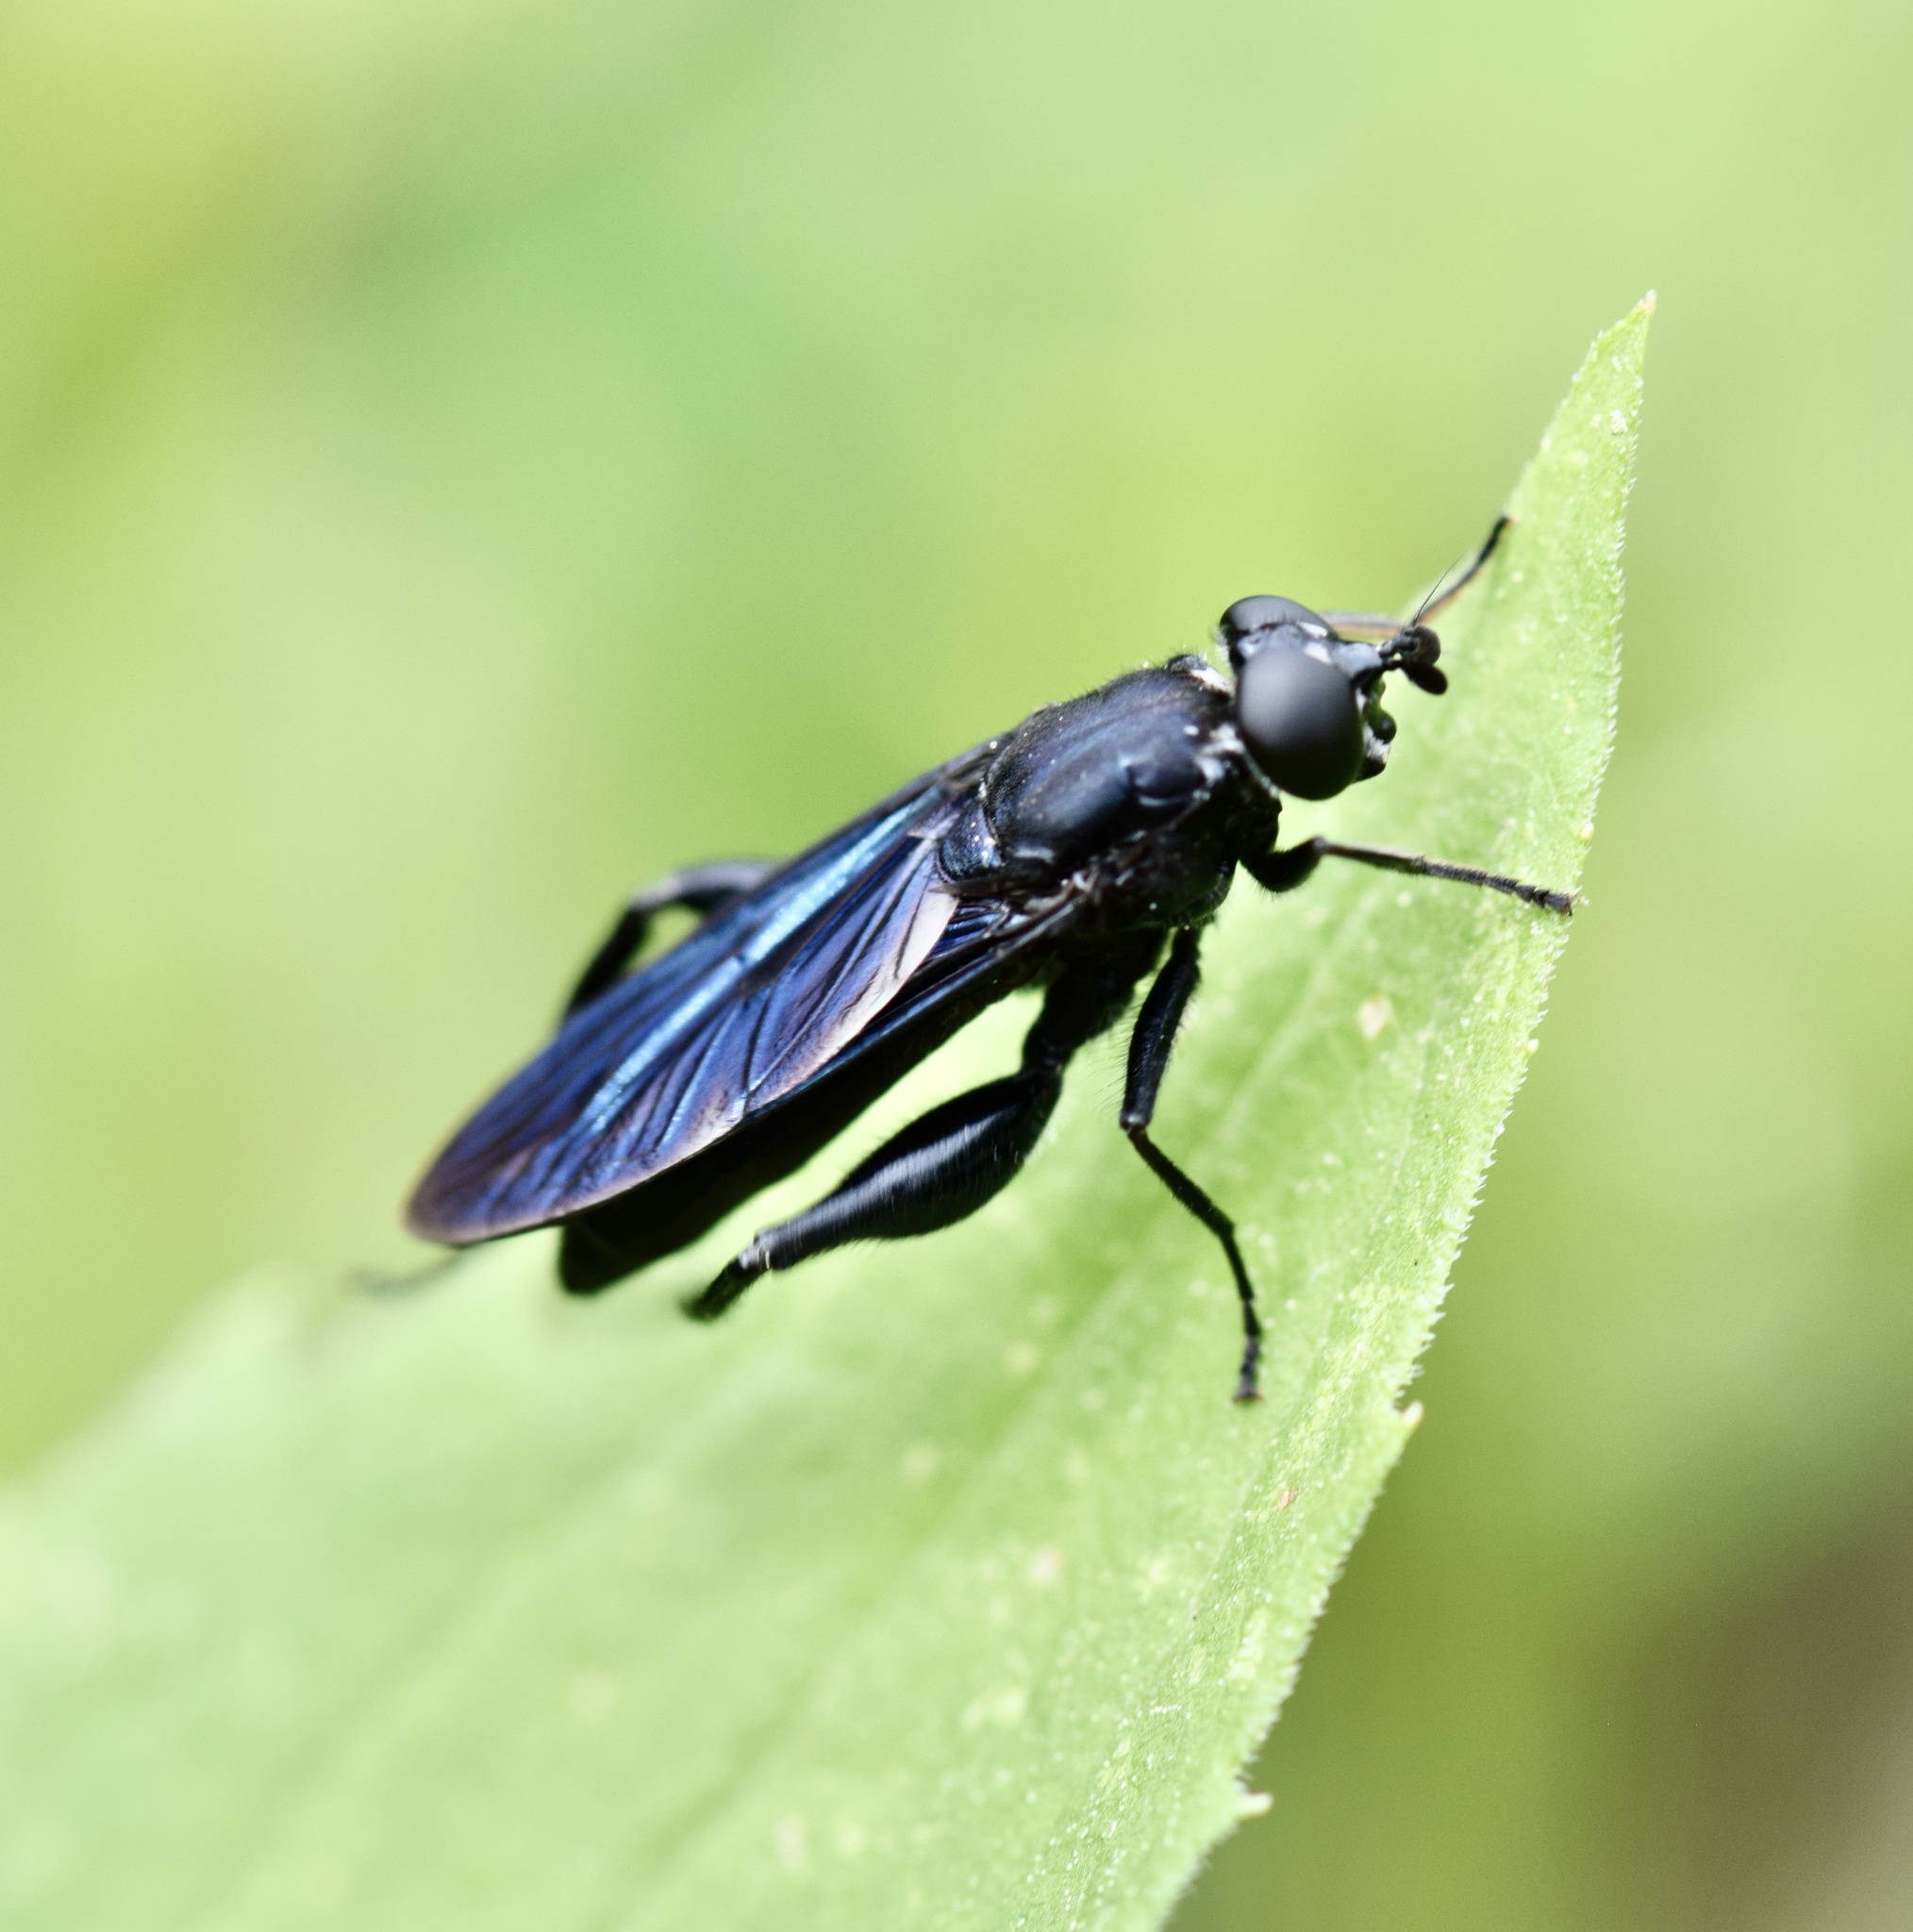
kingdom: Animalia
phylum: Arthropoda
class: Insecta
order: Diptera
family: Syrphidae
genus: Chalcosyrphus
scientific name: Chalcosyrphus chalybeus
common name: Violet leafwalker
